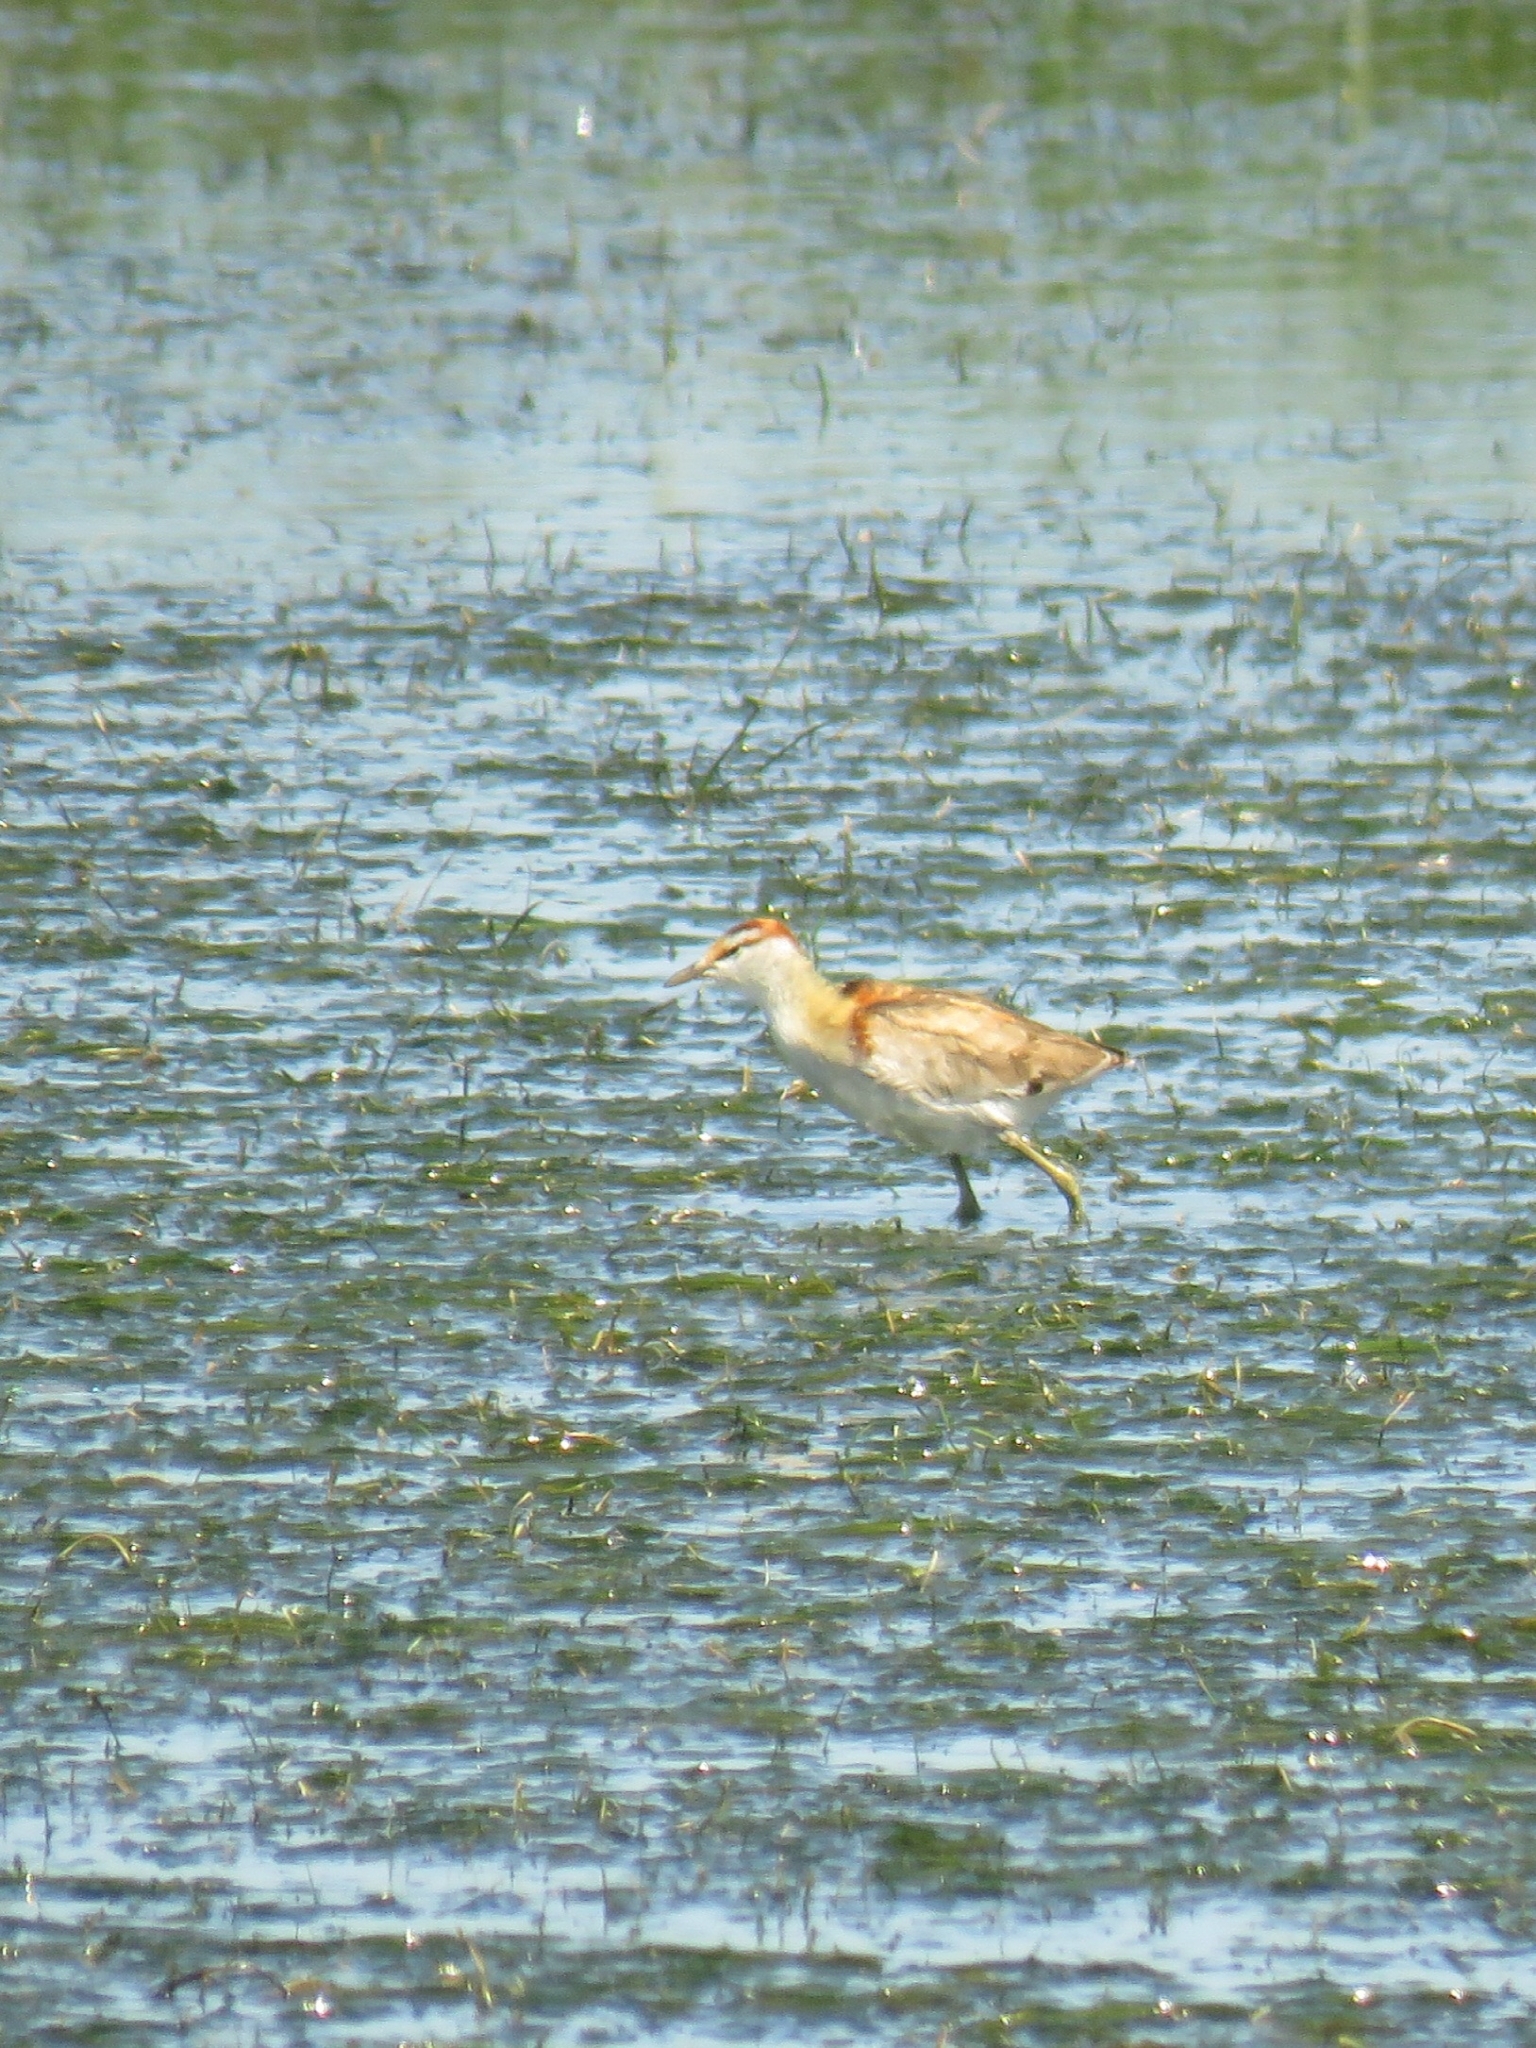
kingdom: Animalia
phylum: Chordata
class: Aves
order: Charadriiformes
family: Jacanidae
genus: Microparra
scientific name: Microparra capensis
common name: Lesser jacana
